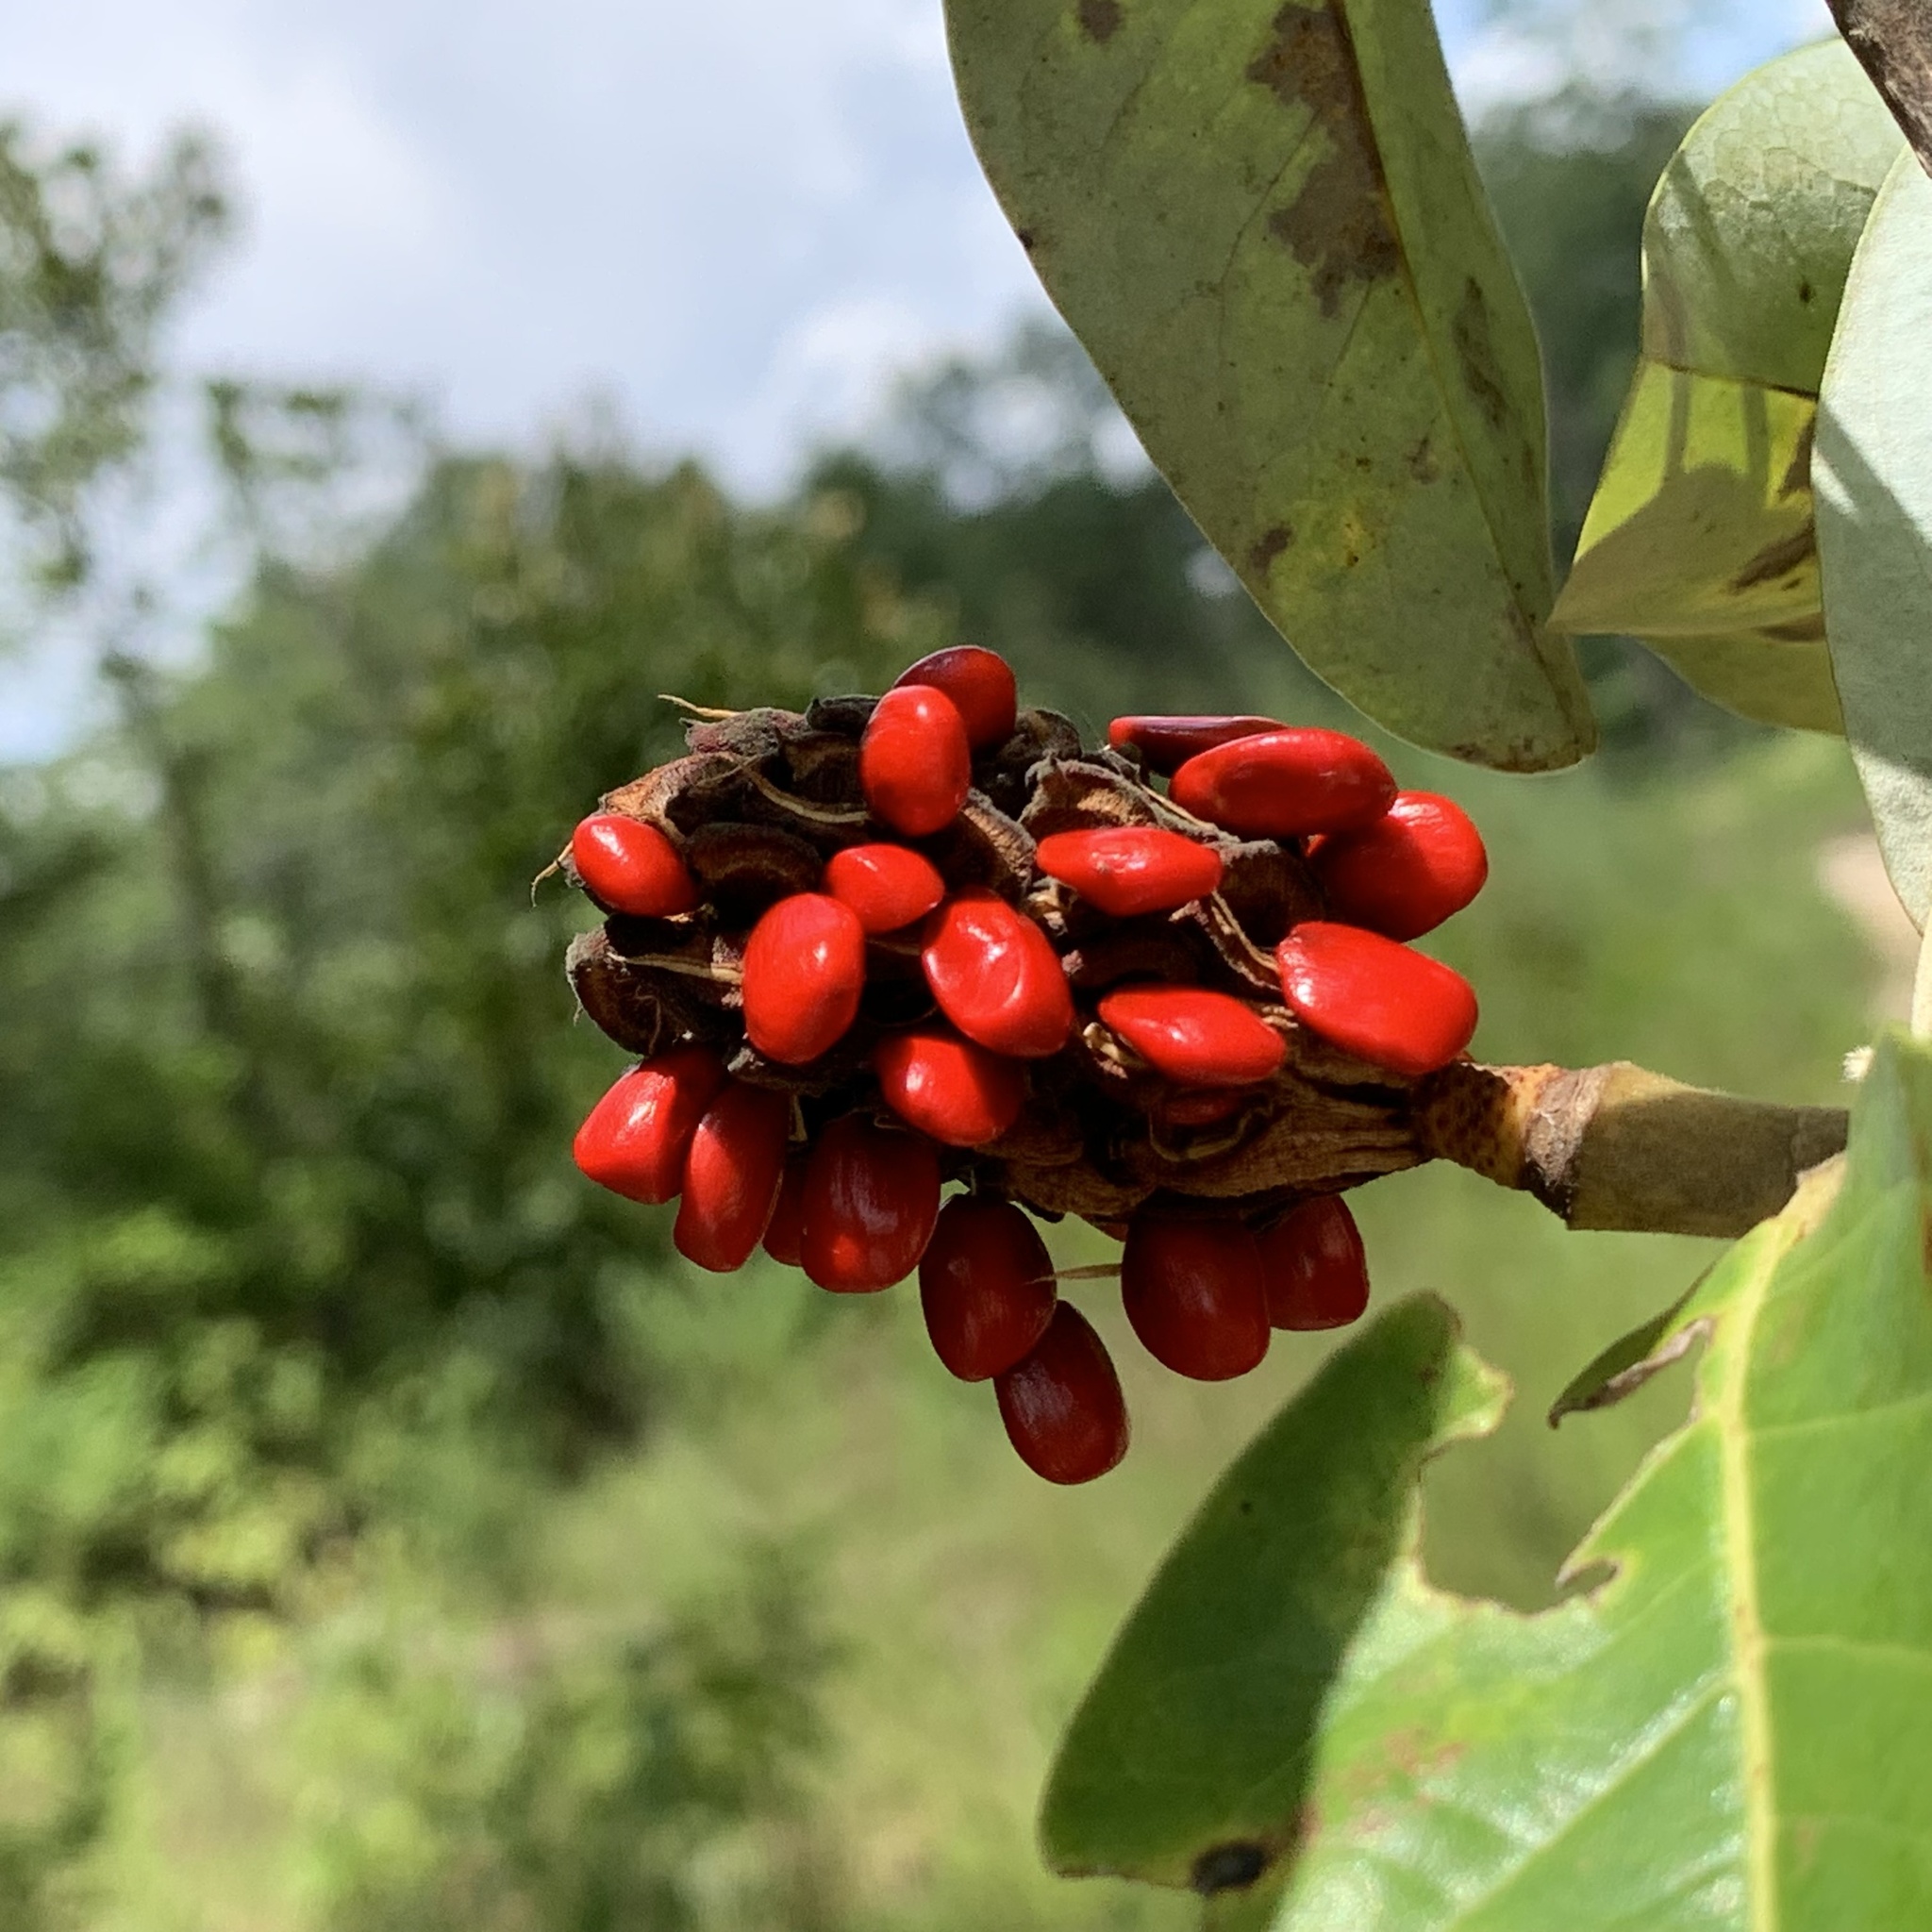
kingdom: Plantae
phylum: Tracheophyta
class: Magnoliopsida
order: Magnoliales
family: Magnoliaceae
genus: Magnolia
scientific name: Magnolia virginiana
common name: Swamp bay
